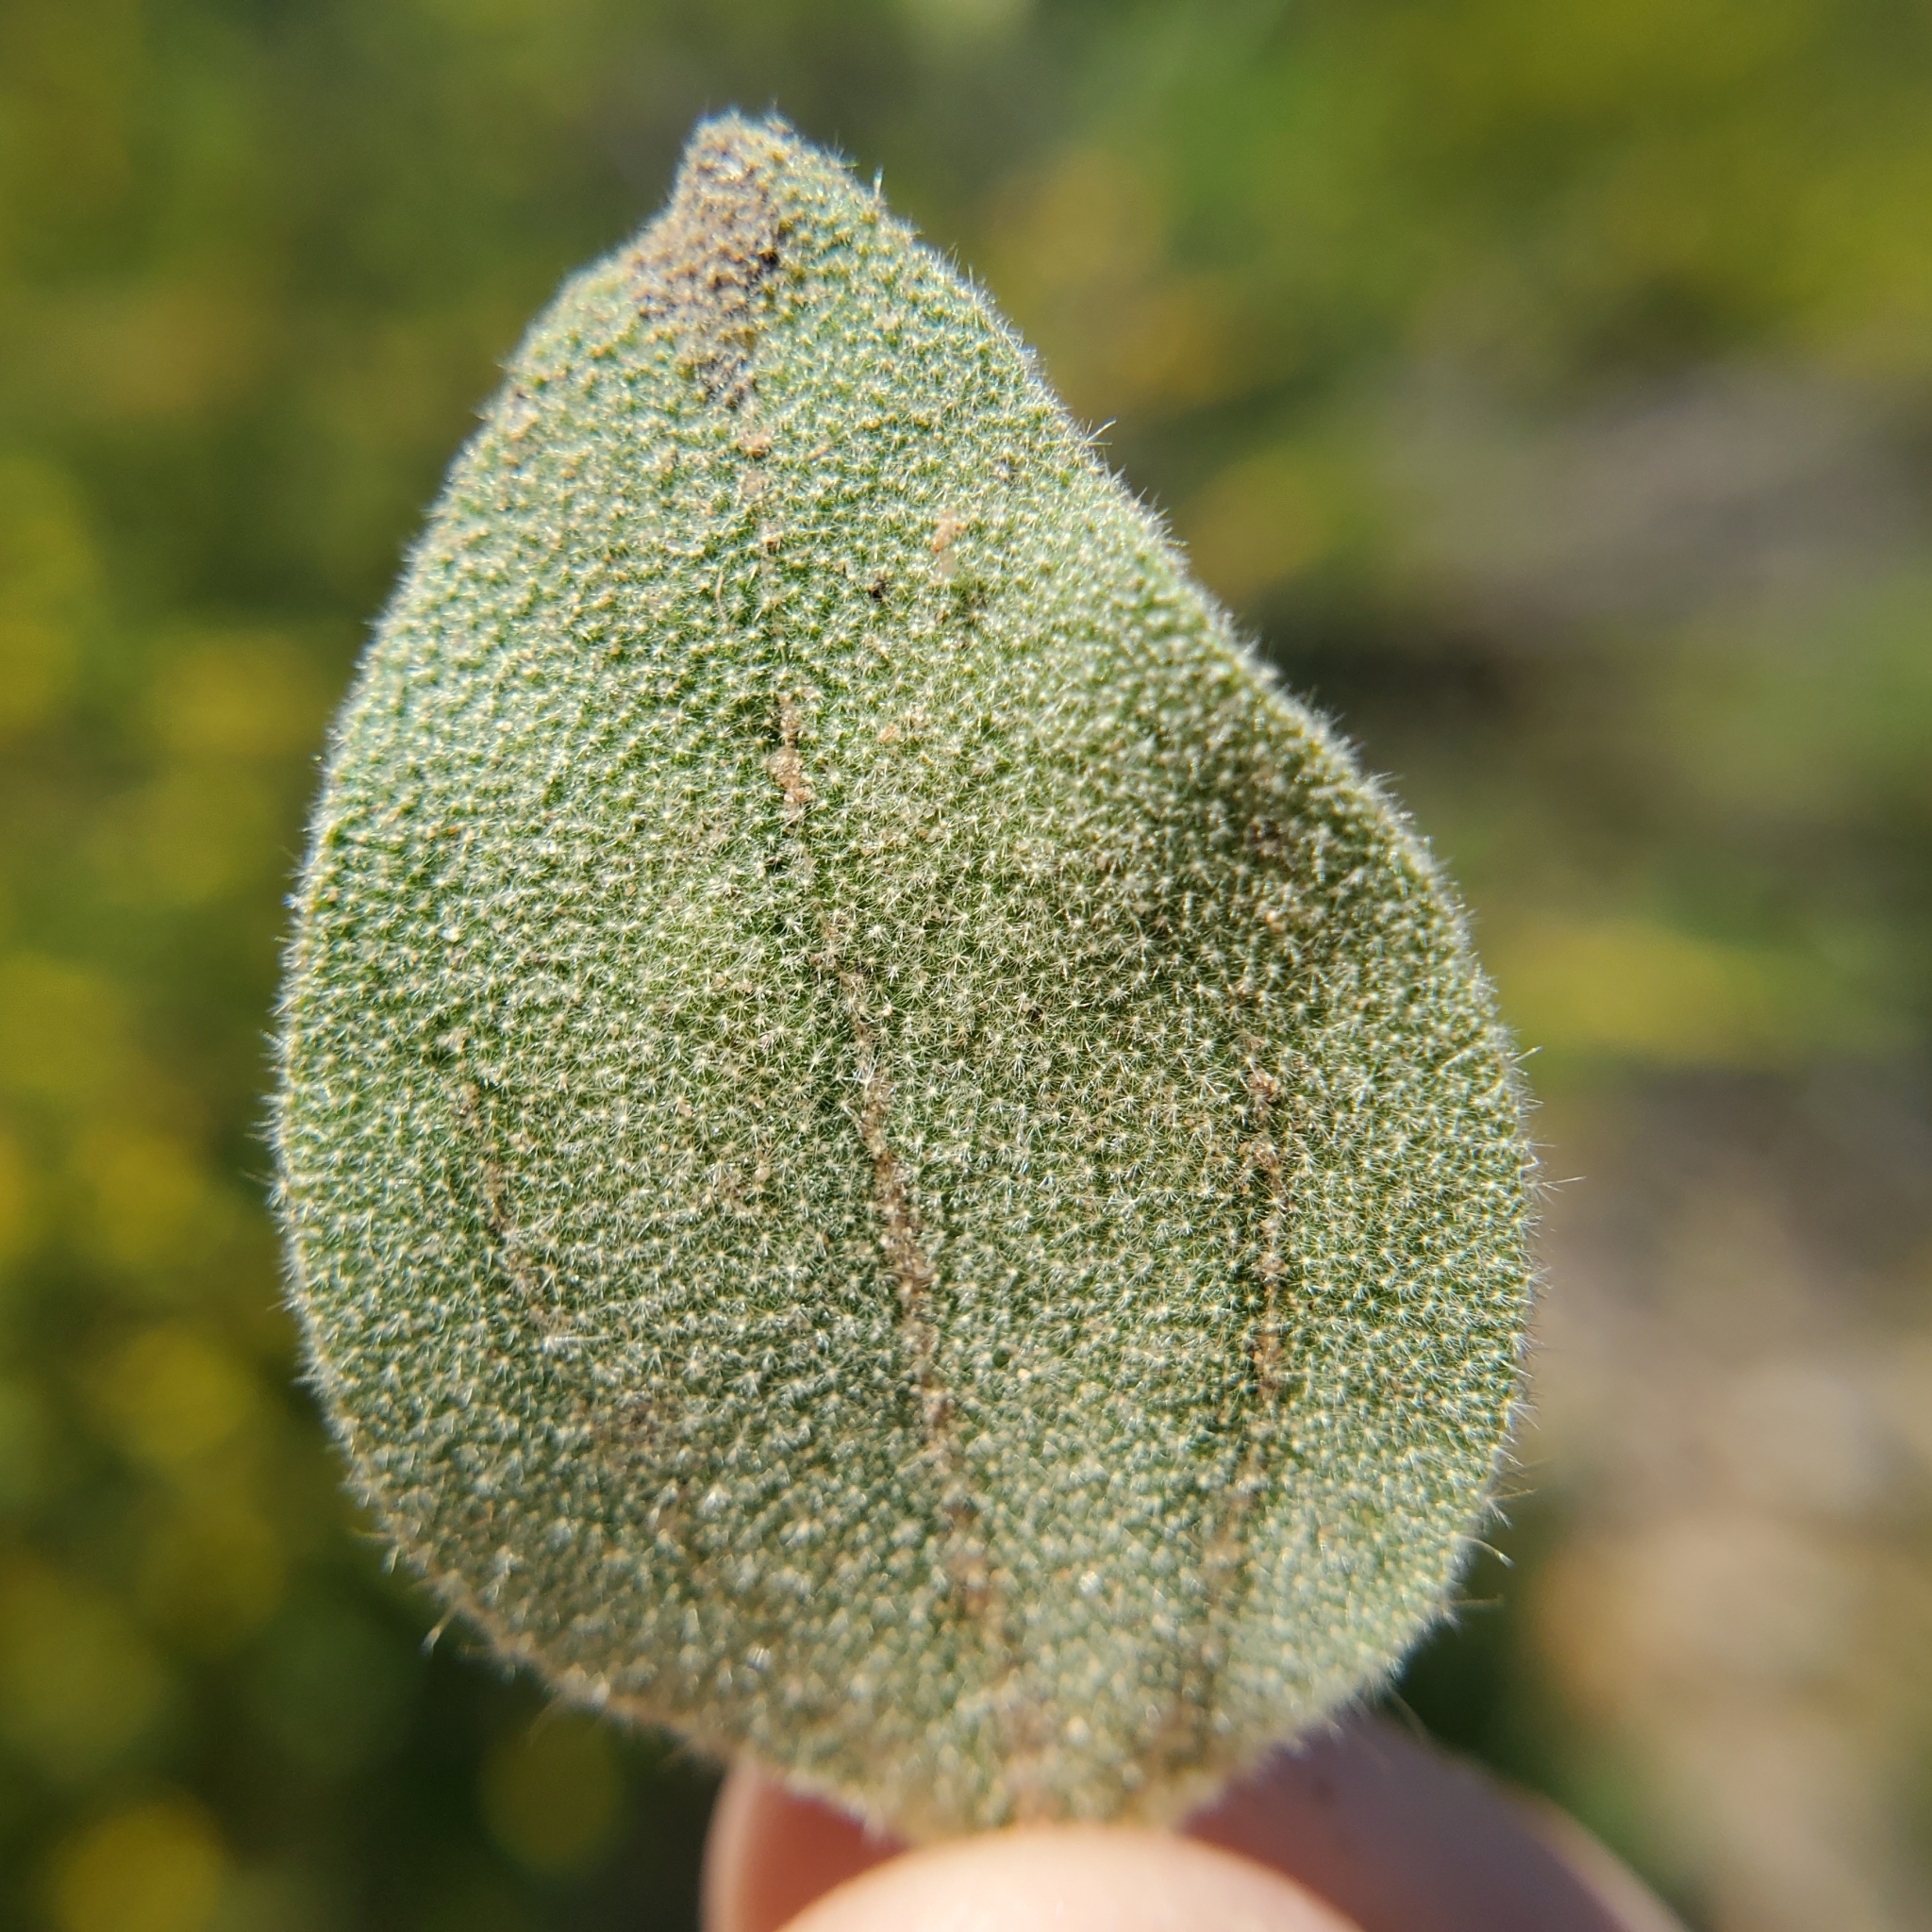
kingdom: Plantae
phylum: Tracheophyta
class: Magnoliopsida
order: Malpighiales
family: Euphorbiaceae
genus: Croton
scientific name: Croton setiger
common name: Dove weed
